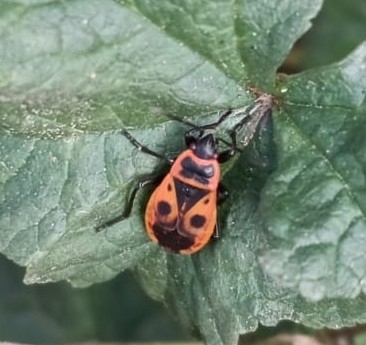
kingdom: Animalia
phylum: Arthropoda
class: Insecta
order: Hemiptera
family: Pyrrhocoridae
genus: Pyrrhocoris
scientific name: Pyrrhocoris apterus
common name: Firebug
